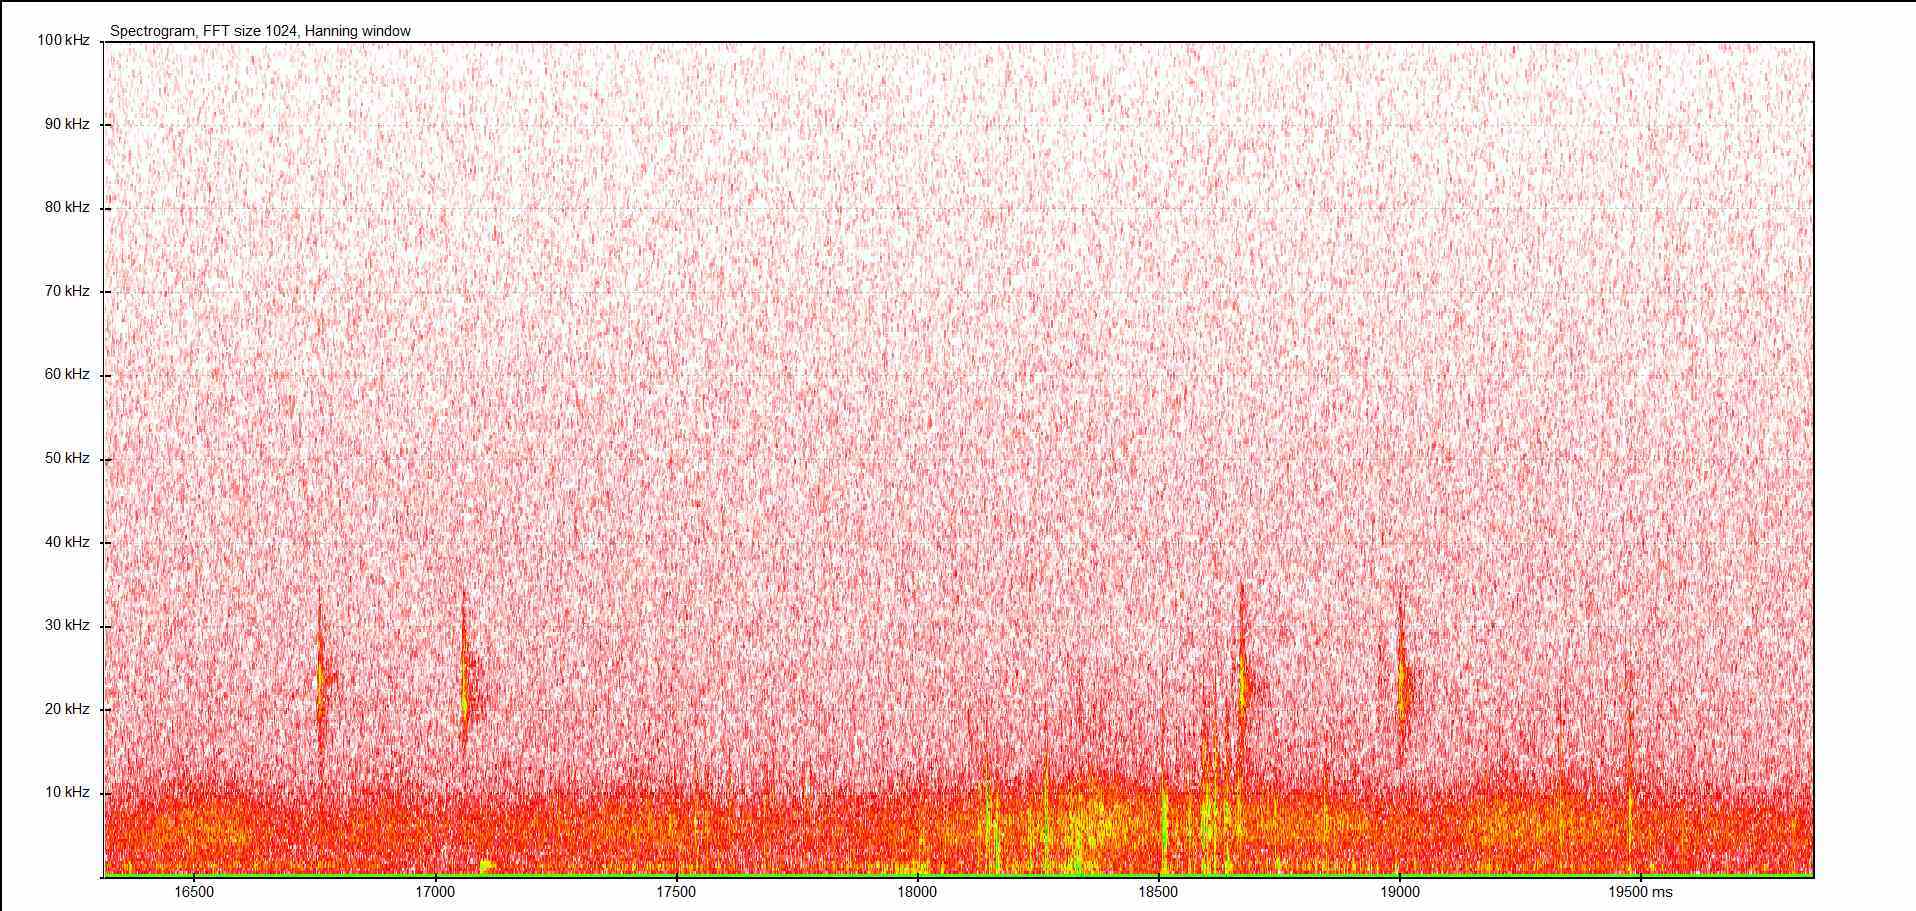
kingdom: Animalia
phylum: Arthropoda
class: Insecta
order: Orthoptera
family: Tettigoniidae
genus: Barbitistes
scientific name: Barbitistes serricauda
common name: Saw-tailed bush-cricket
